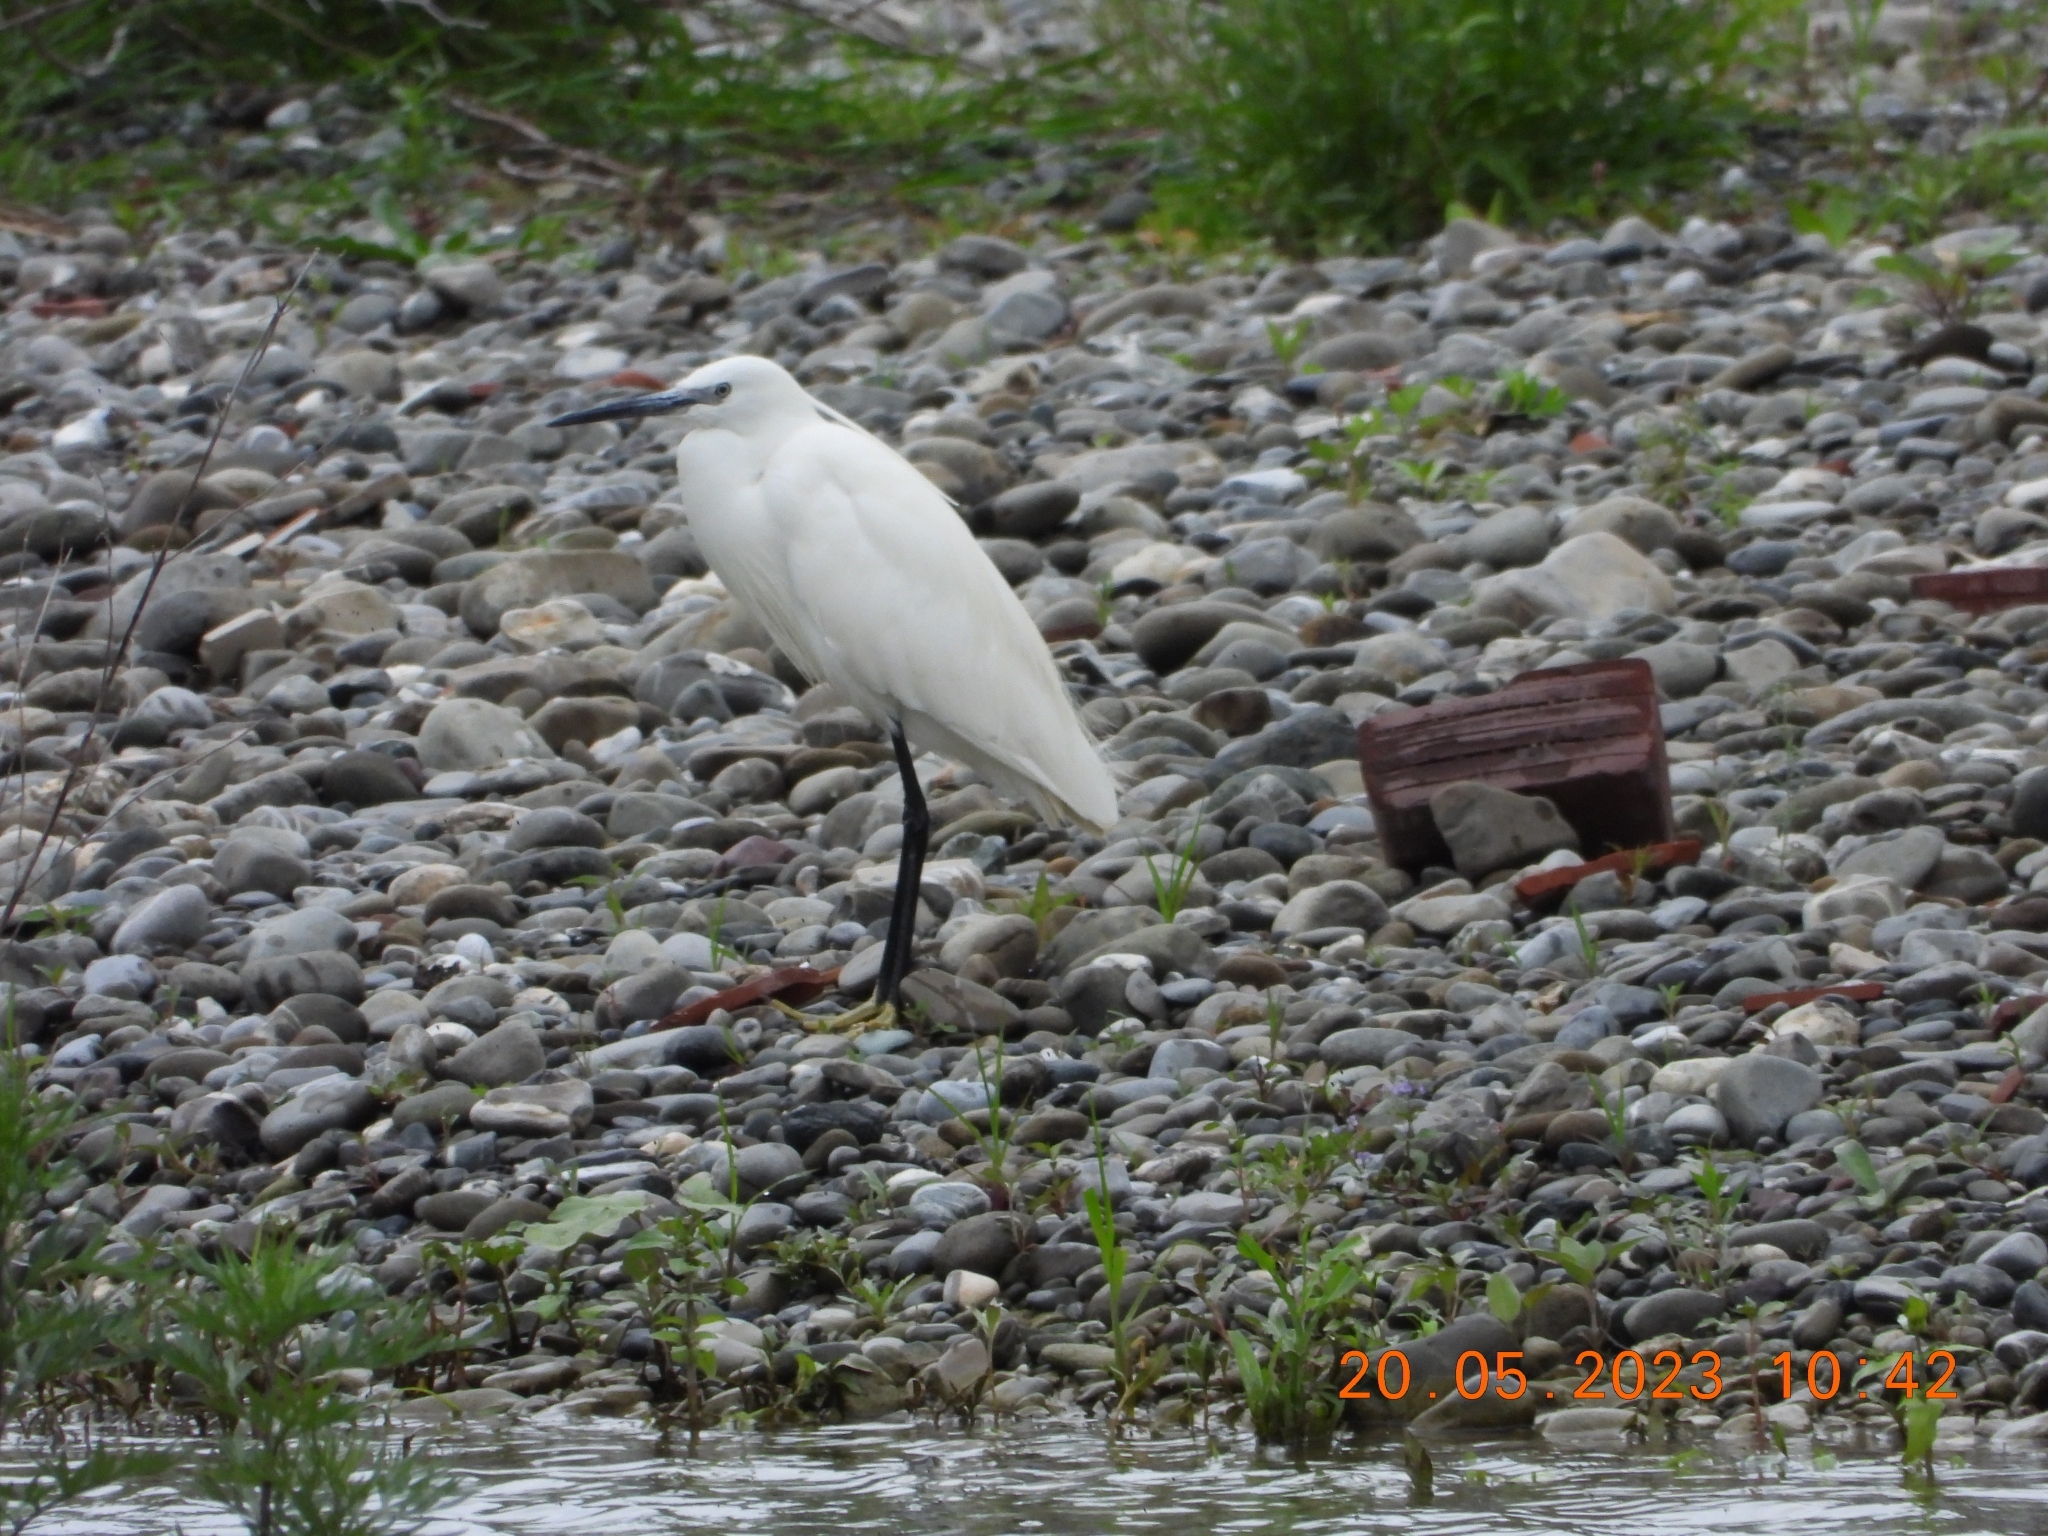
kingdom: Animalia
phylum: Chordata
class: Aves
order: Pelecaniformes
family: Ardeidae
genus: Egretta
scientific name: Egretta garzetta
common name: Little egret
